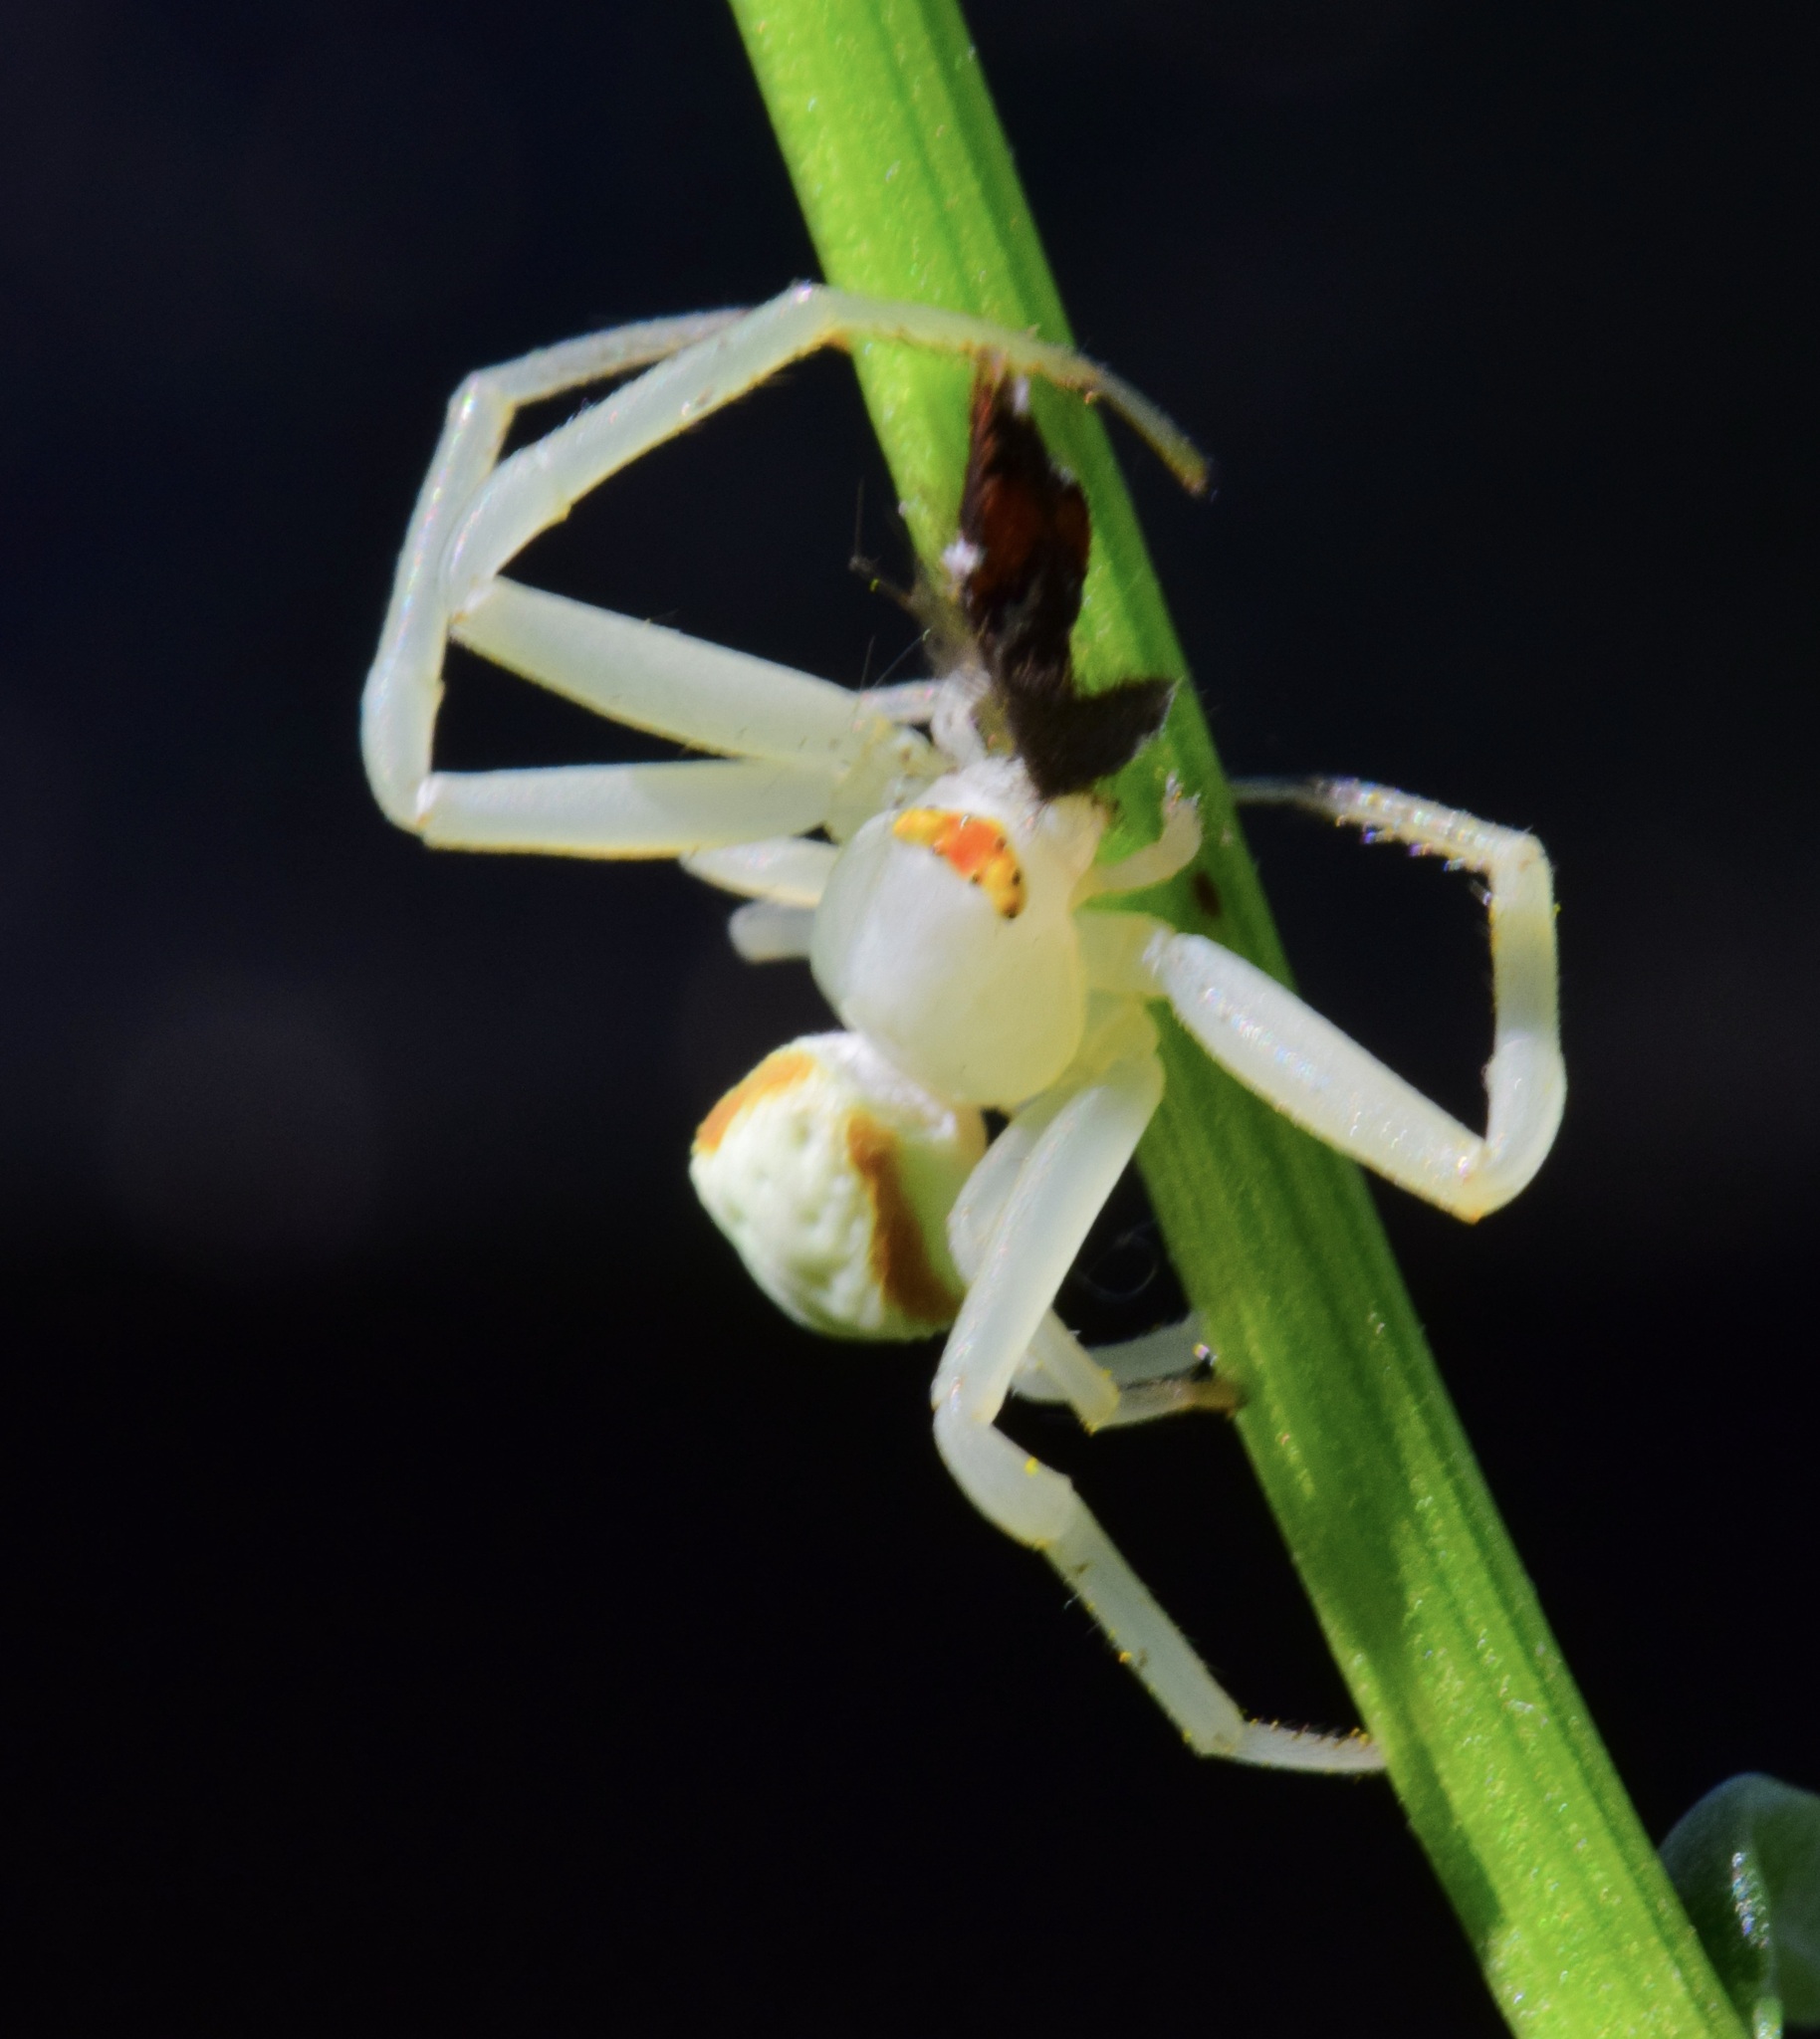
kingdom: Animalia
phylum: Arthropoda
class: Arachnida
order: Araneae
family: Thomisidae
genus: Misumena
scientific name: Misumena vatia
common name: Goldenrod crab spider
